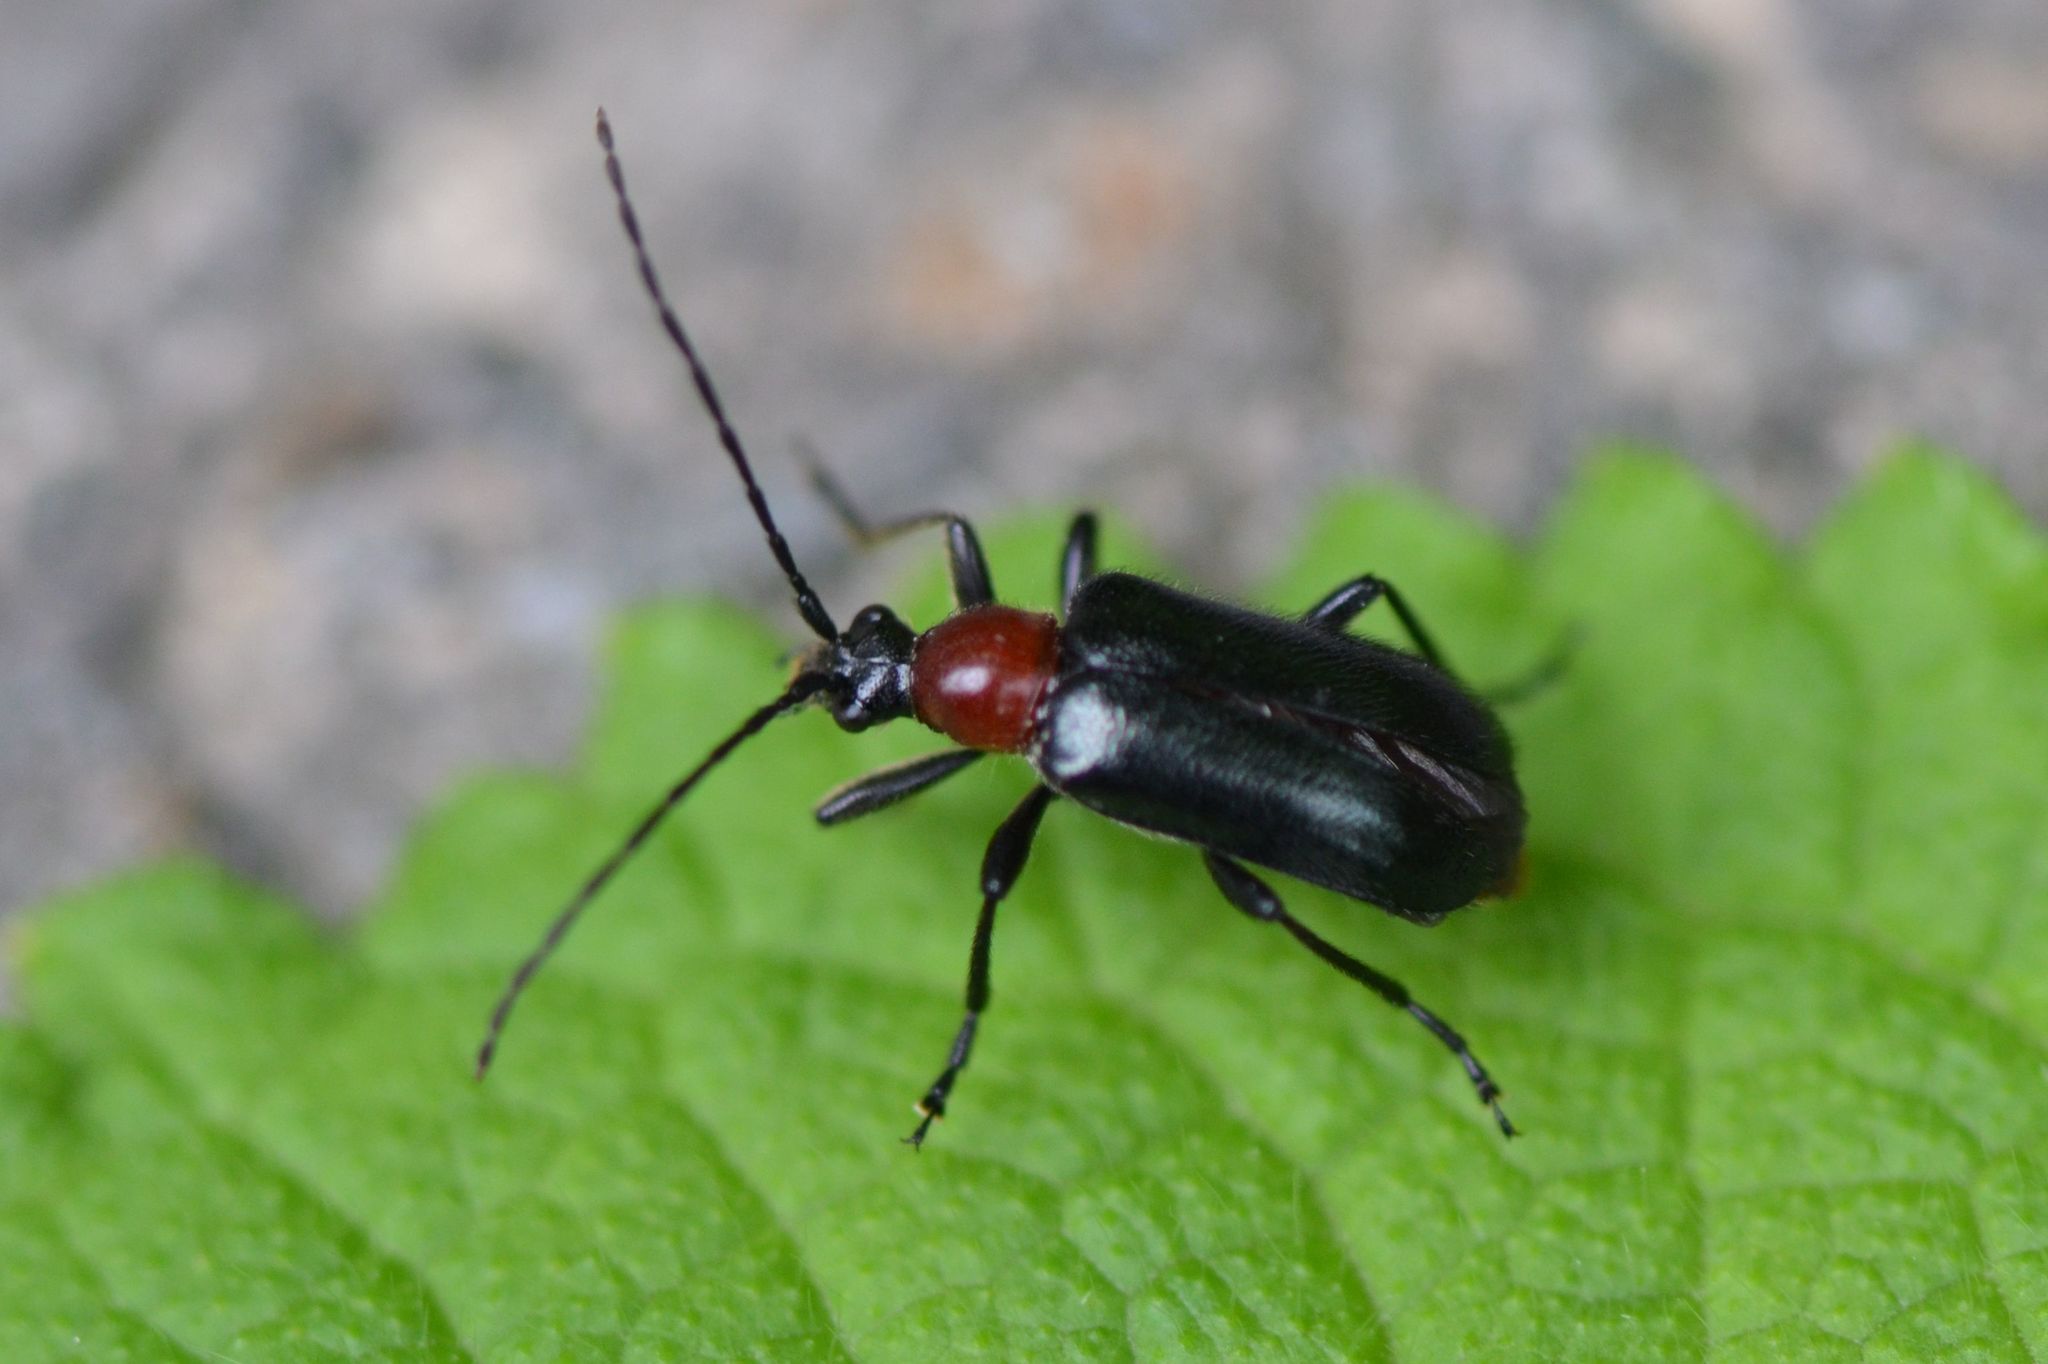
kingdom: Animalia
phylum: Arthropoda
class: Insecta
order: Coleoptera
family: Cerambycidae
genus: Dinoptera
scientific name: Dinoptera collaris
